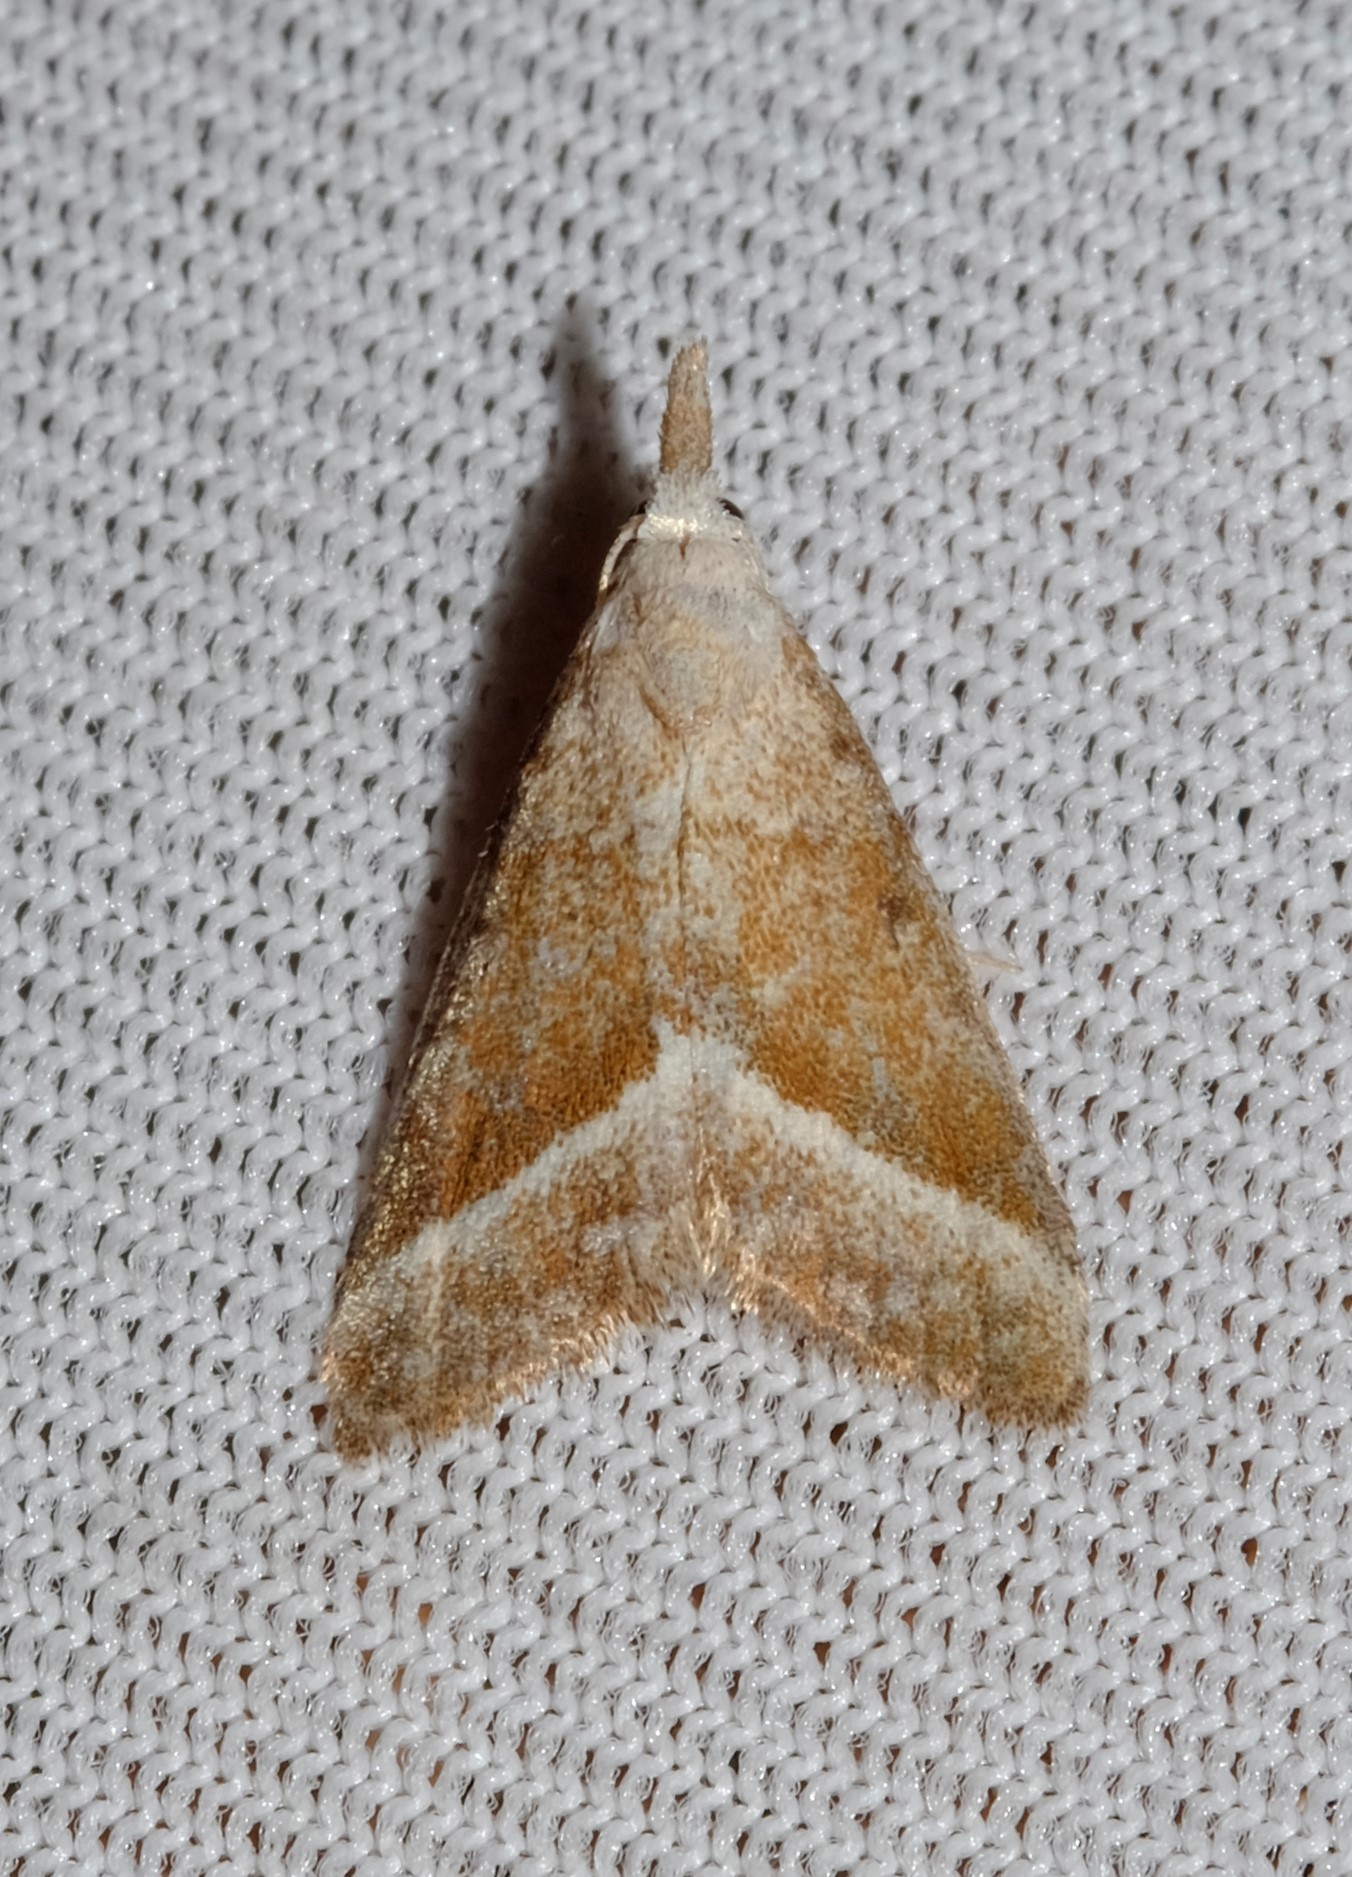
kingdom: Animalia
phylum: Arthropoda
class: Insecta
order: Lepidoptera
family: Nolidae
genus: Nola
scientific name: Nola tholera
